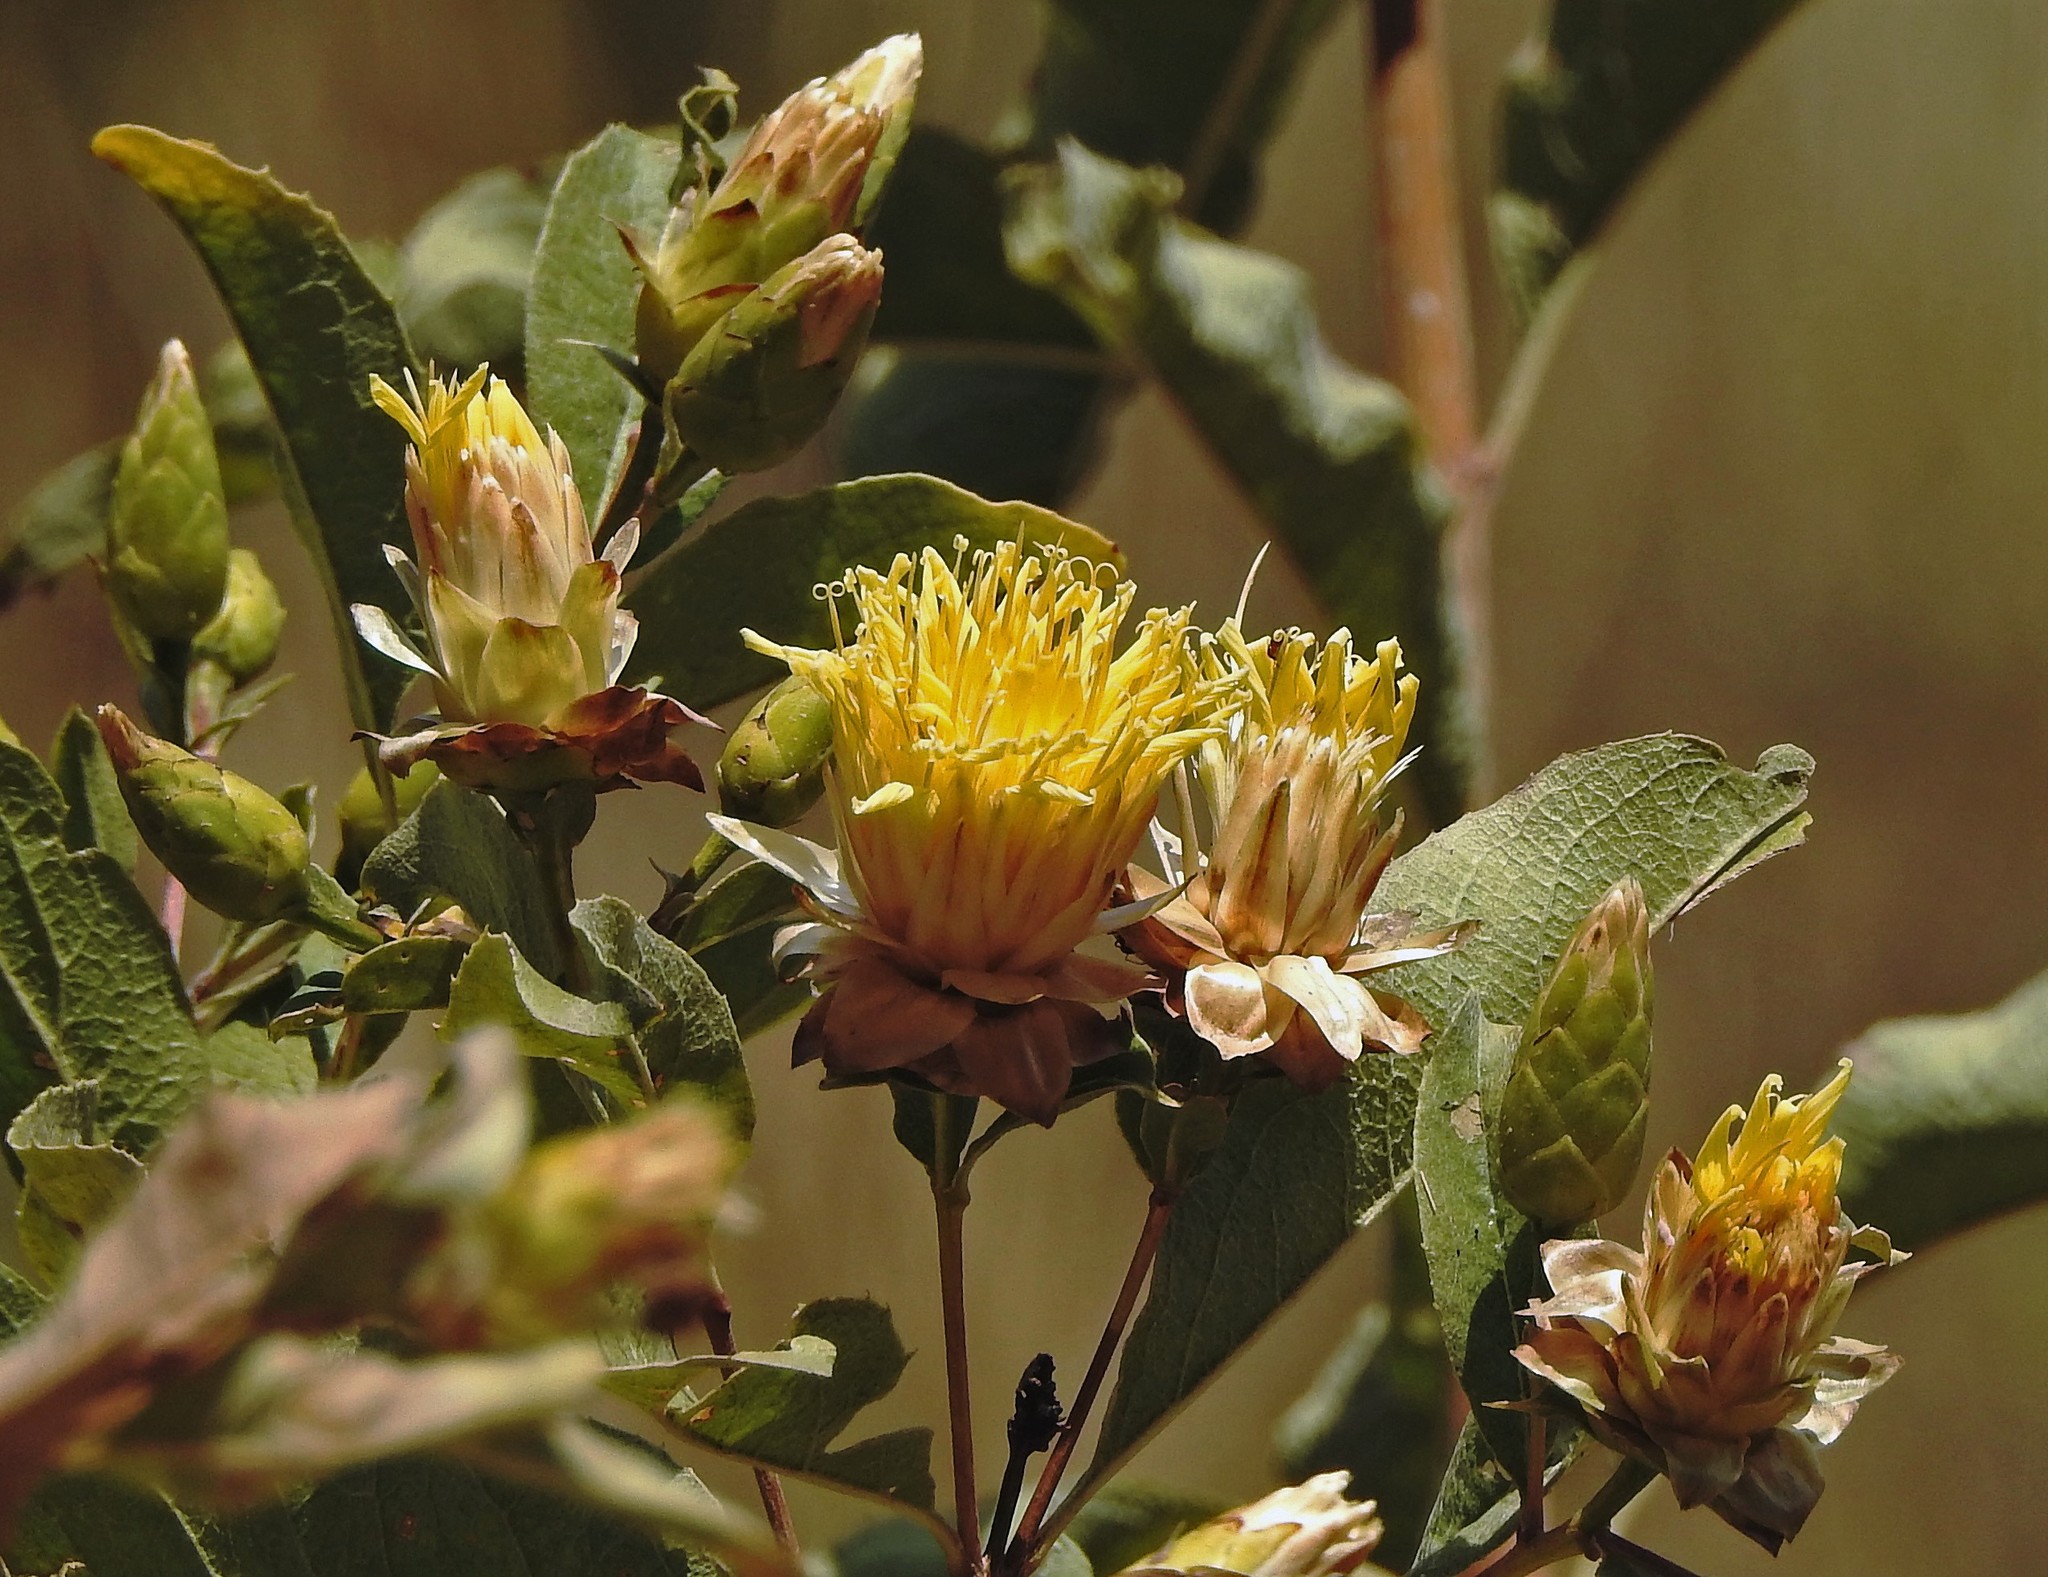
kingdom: Plantae
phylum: Tracheophyta
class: Magnoliopsida
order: Asterales
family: Asteraceae
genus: Hyaloseris
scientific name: Hyaloseris salicifolia
